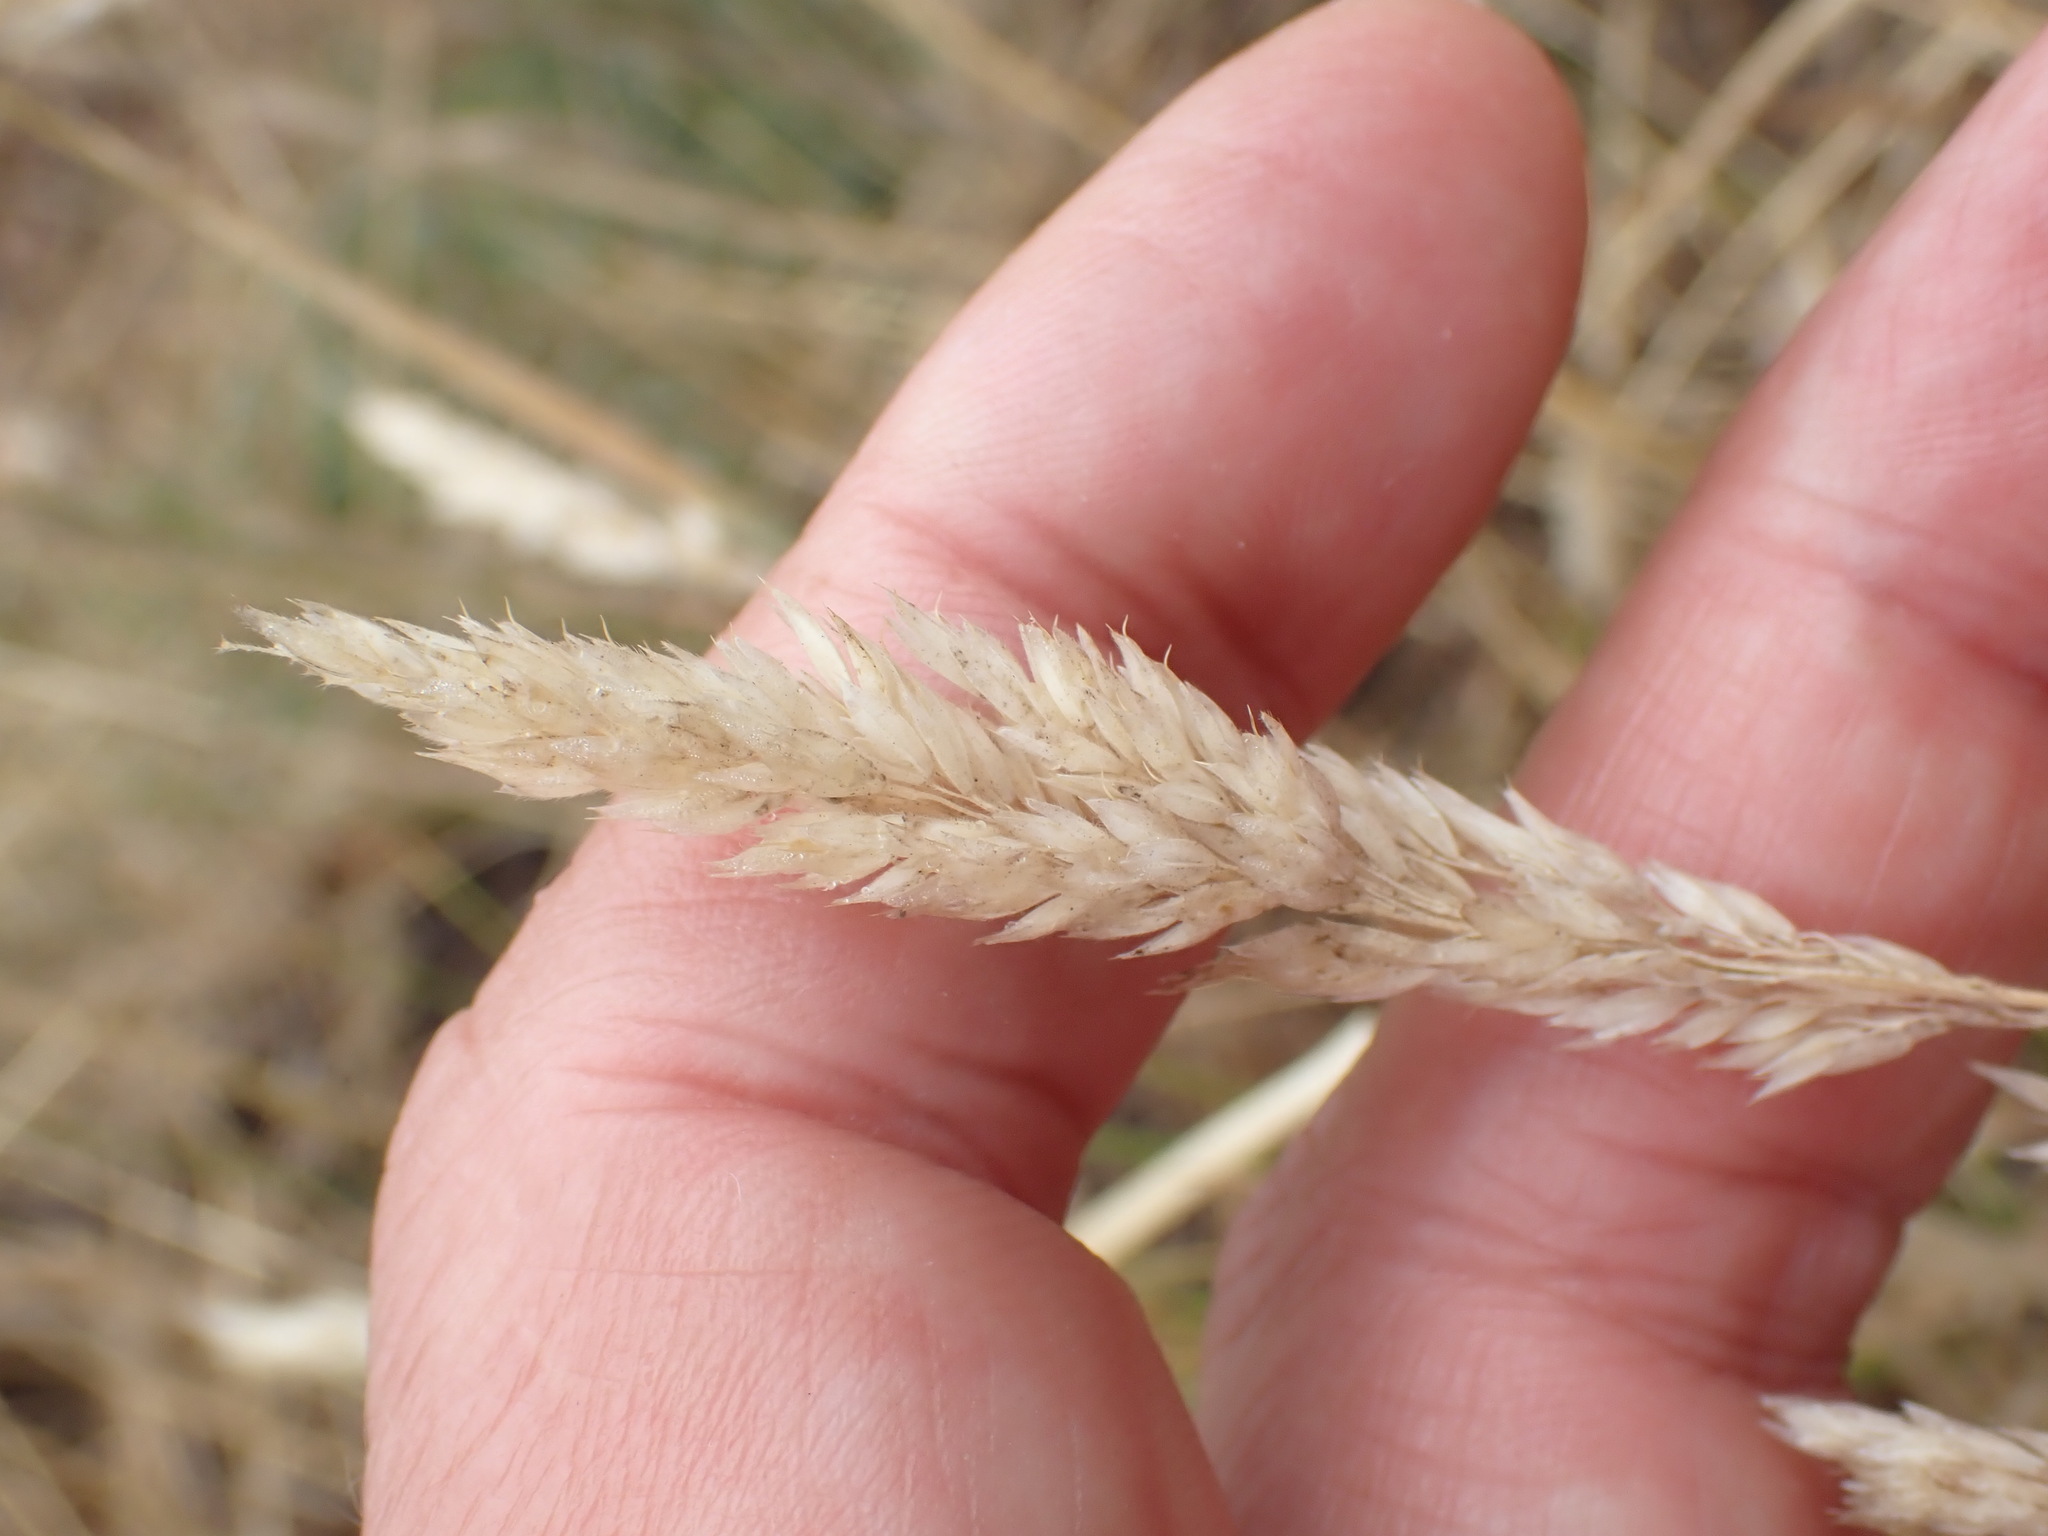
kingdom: Plantae
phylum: Tracheophyta
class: Liliopsida
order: Poales
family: Poaceae
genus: Holcus
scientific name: Holcus lanatus
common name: Yorkshire-fog
